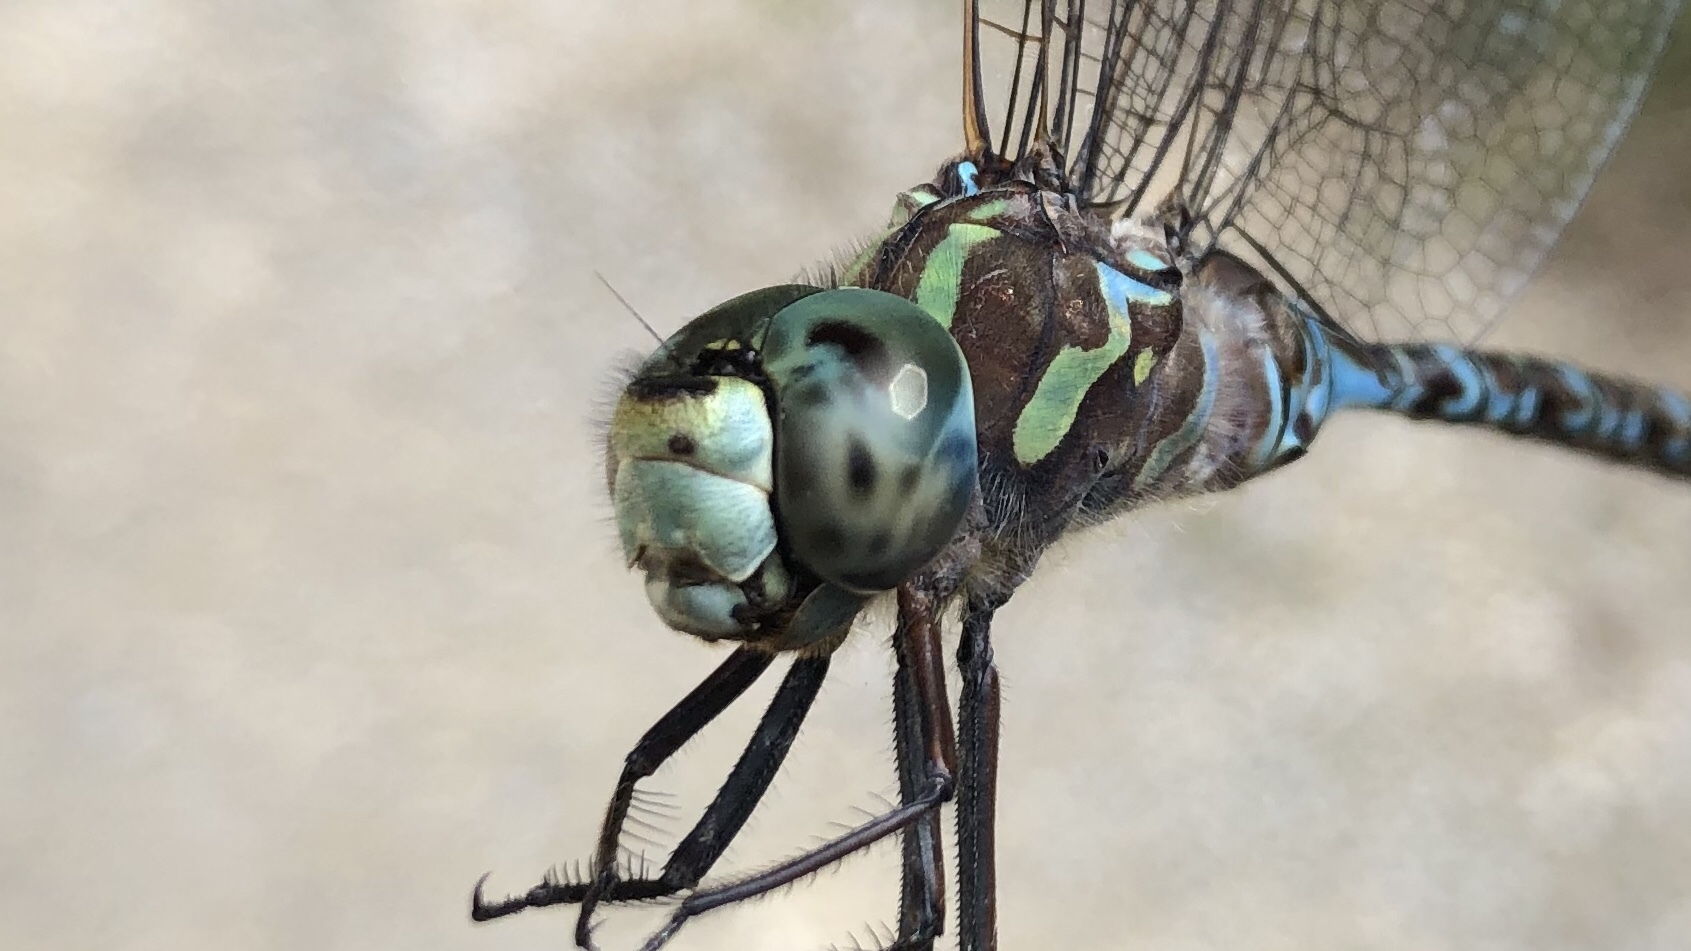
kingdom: Animalia
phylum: Arthropoda
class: Insecta
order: Odonata
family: Aeshnidae
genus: Aeshna
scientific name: Aeshna canadensis
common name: Canada darner
